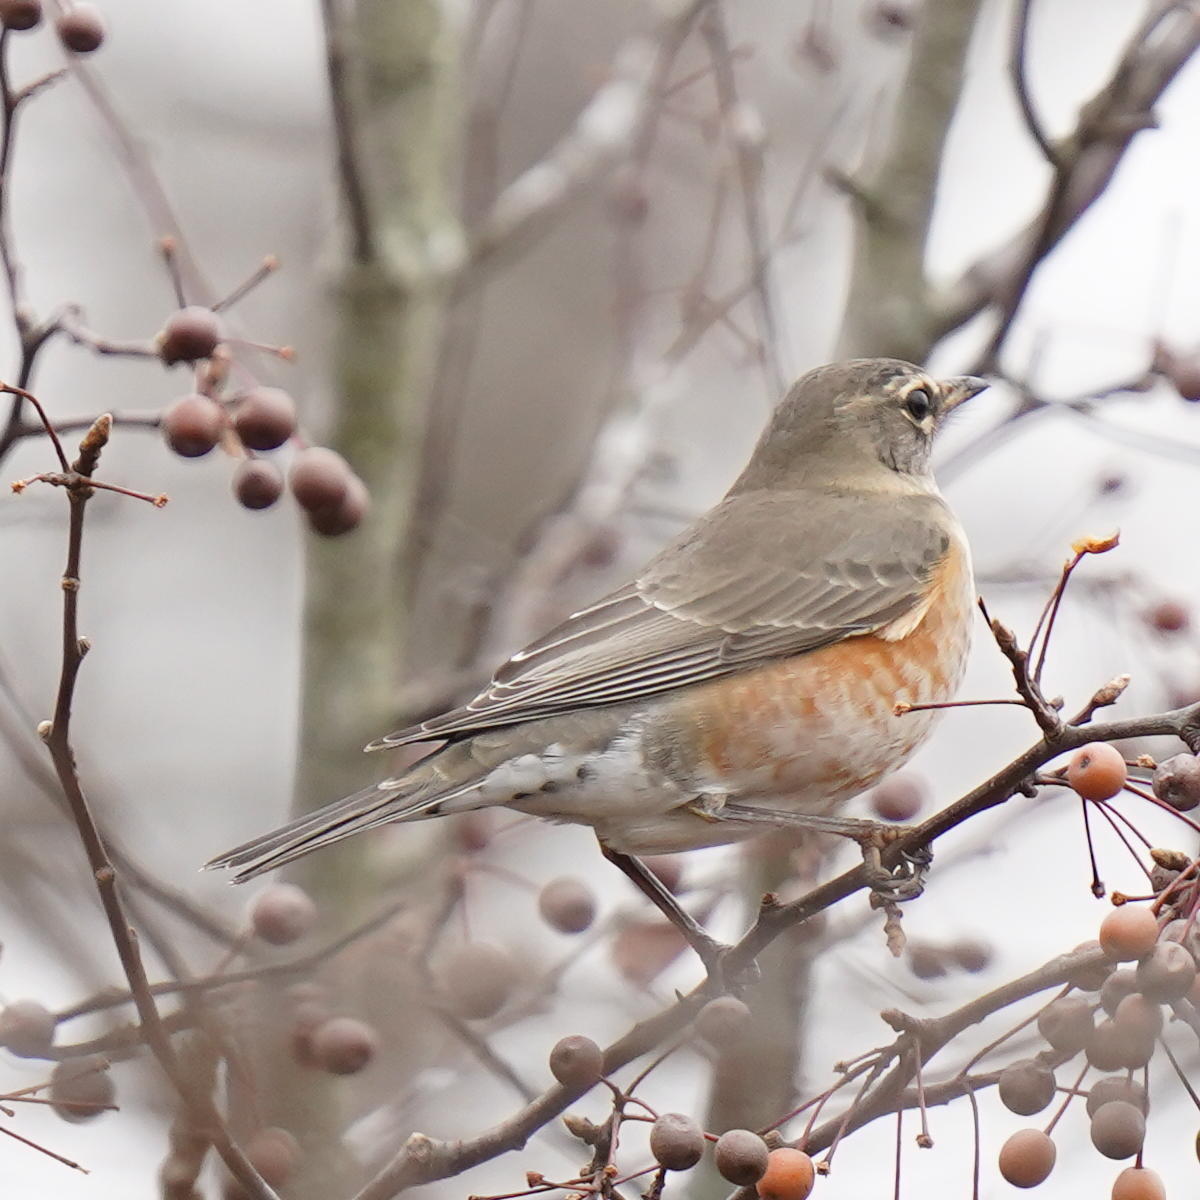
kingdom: Animalia
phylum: Chordata
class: Aves
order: Passeriformes
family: Turdidae
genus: Turdus
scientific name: Turdus migratorius
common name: American robin
